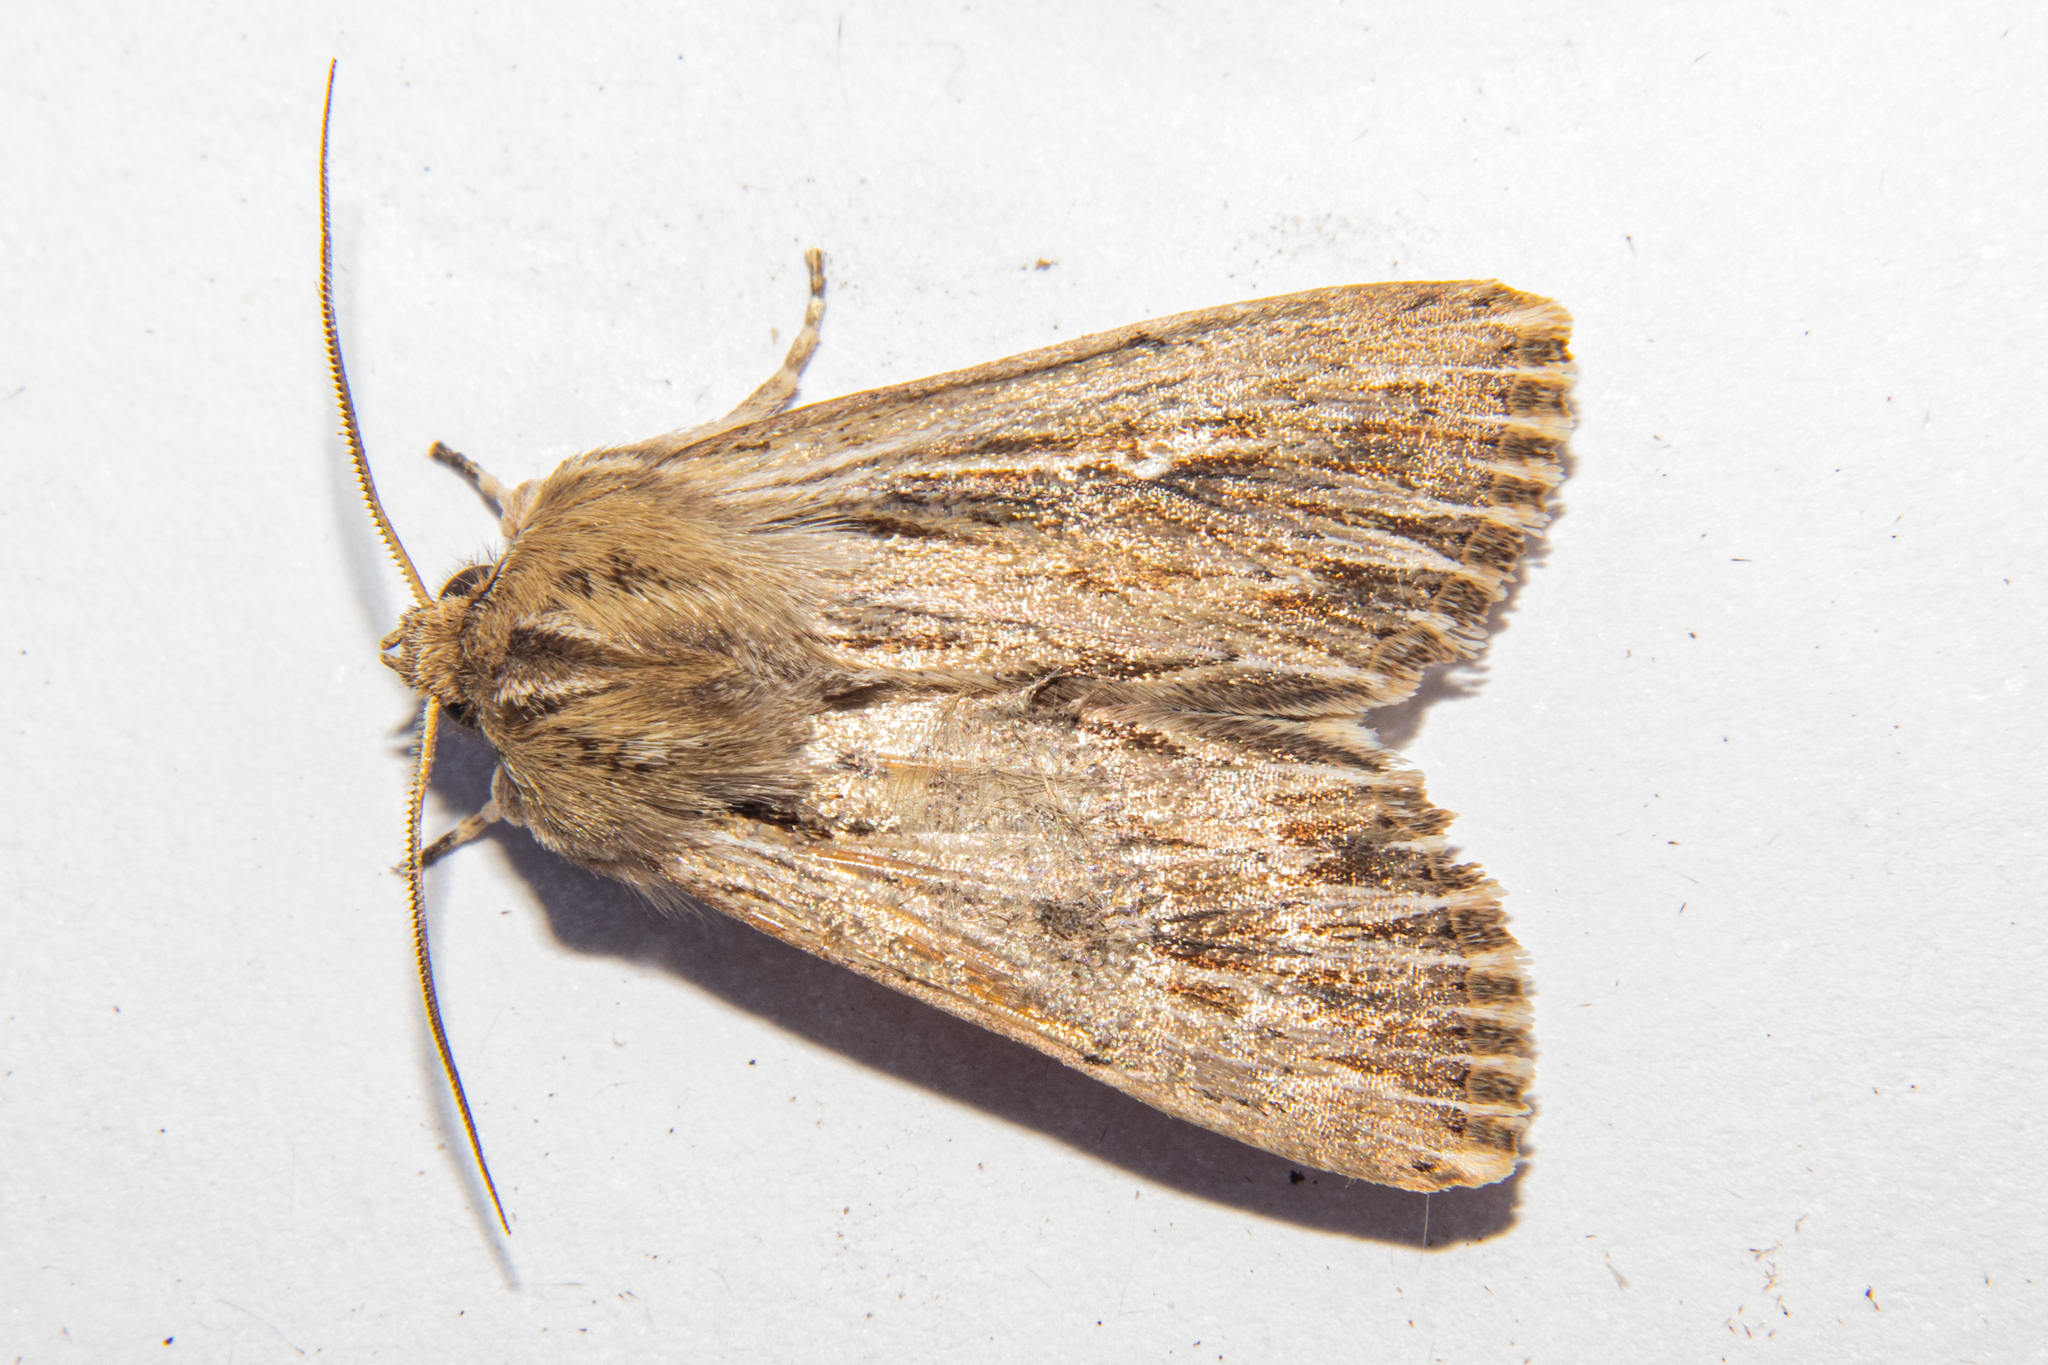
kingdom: Animalia
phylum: Arthropoda
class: Insecta
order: Lepidoptera
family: Noctuidae
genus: Persectania
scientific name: Persectania aversa
